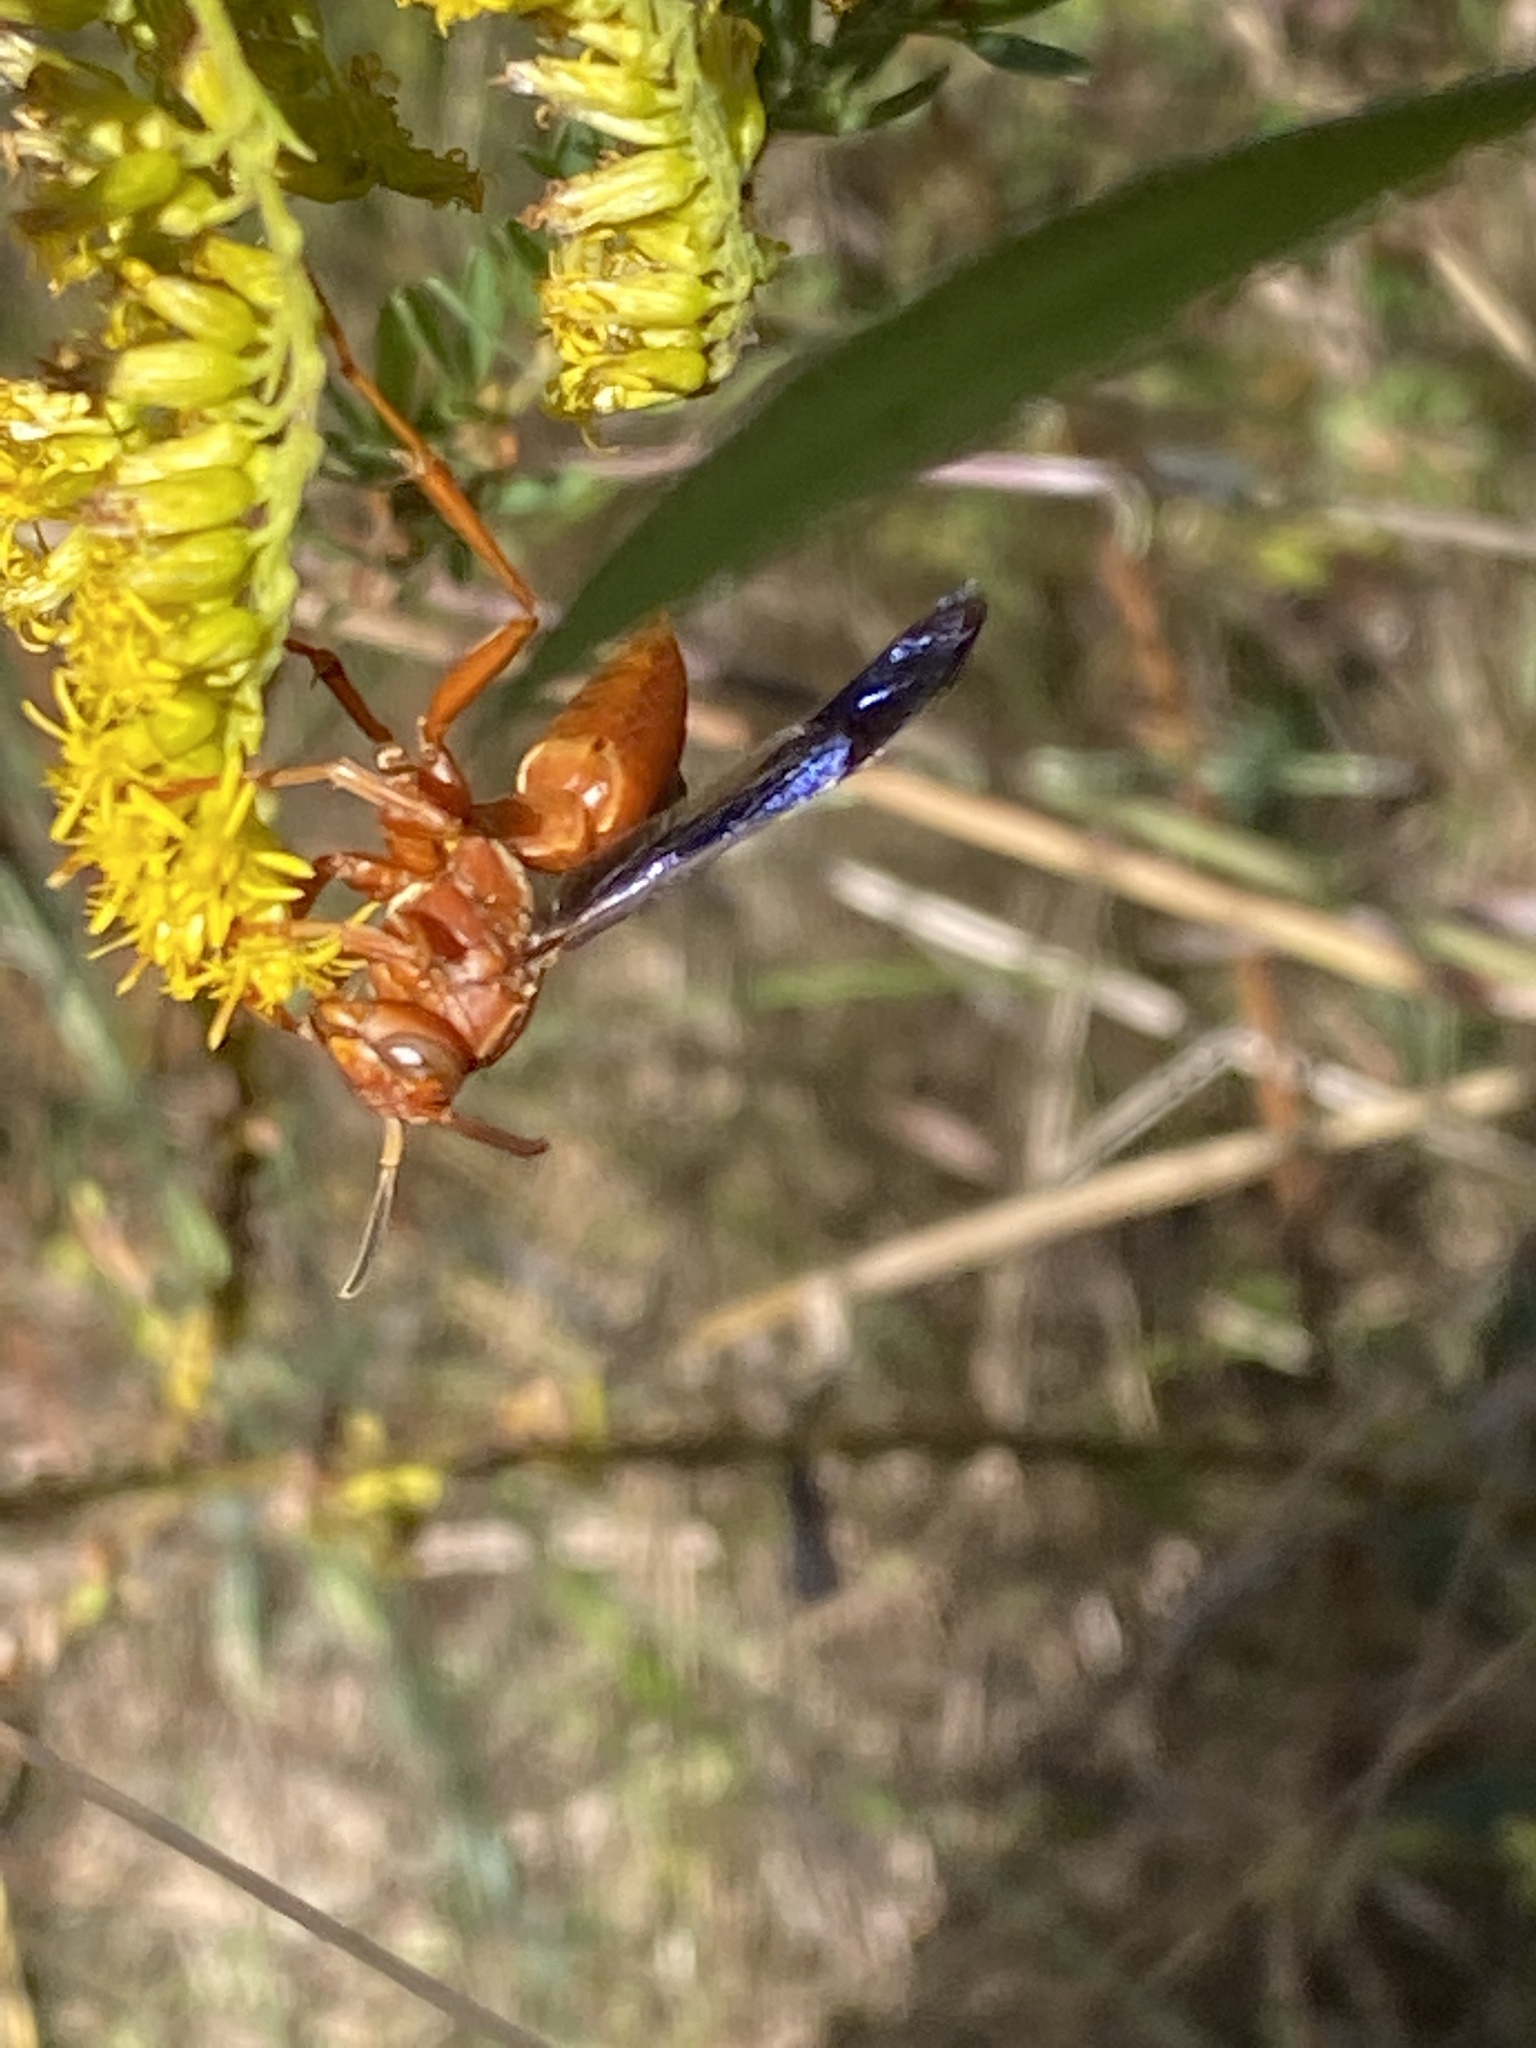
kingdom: Animalia
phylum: Arthropoda
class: Insecta
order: Hymenoptera
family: Vespidae
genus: Fuscopolistes
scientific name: Fuscopolistes
